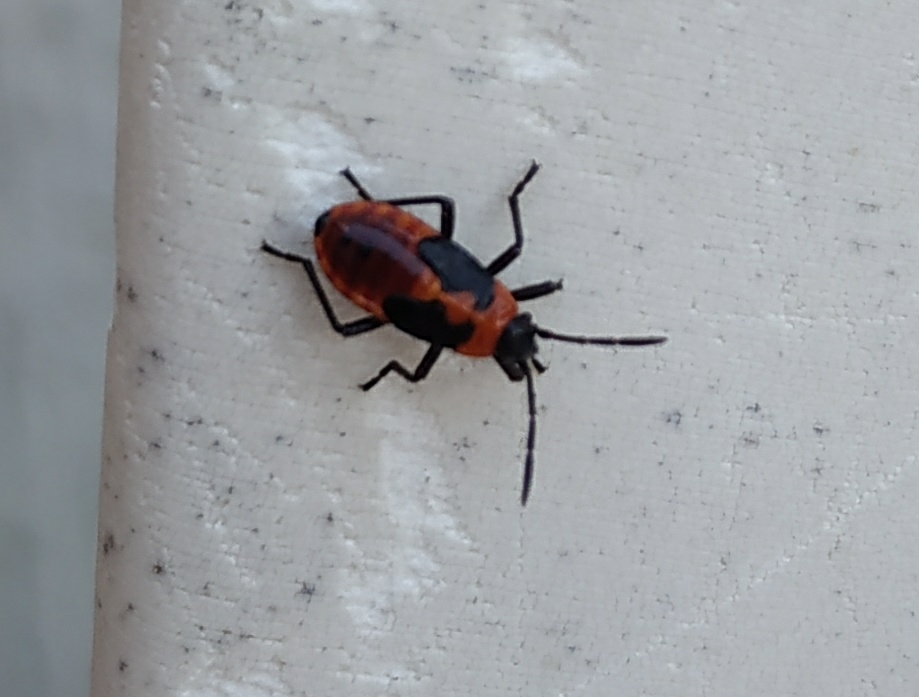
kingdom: Animalia
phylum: Arthropoda
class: Insecta
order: Hemiptera
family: Lygaeidae
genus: Tropidothorax
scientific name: Tropidothorax leucopterus
